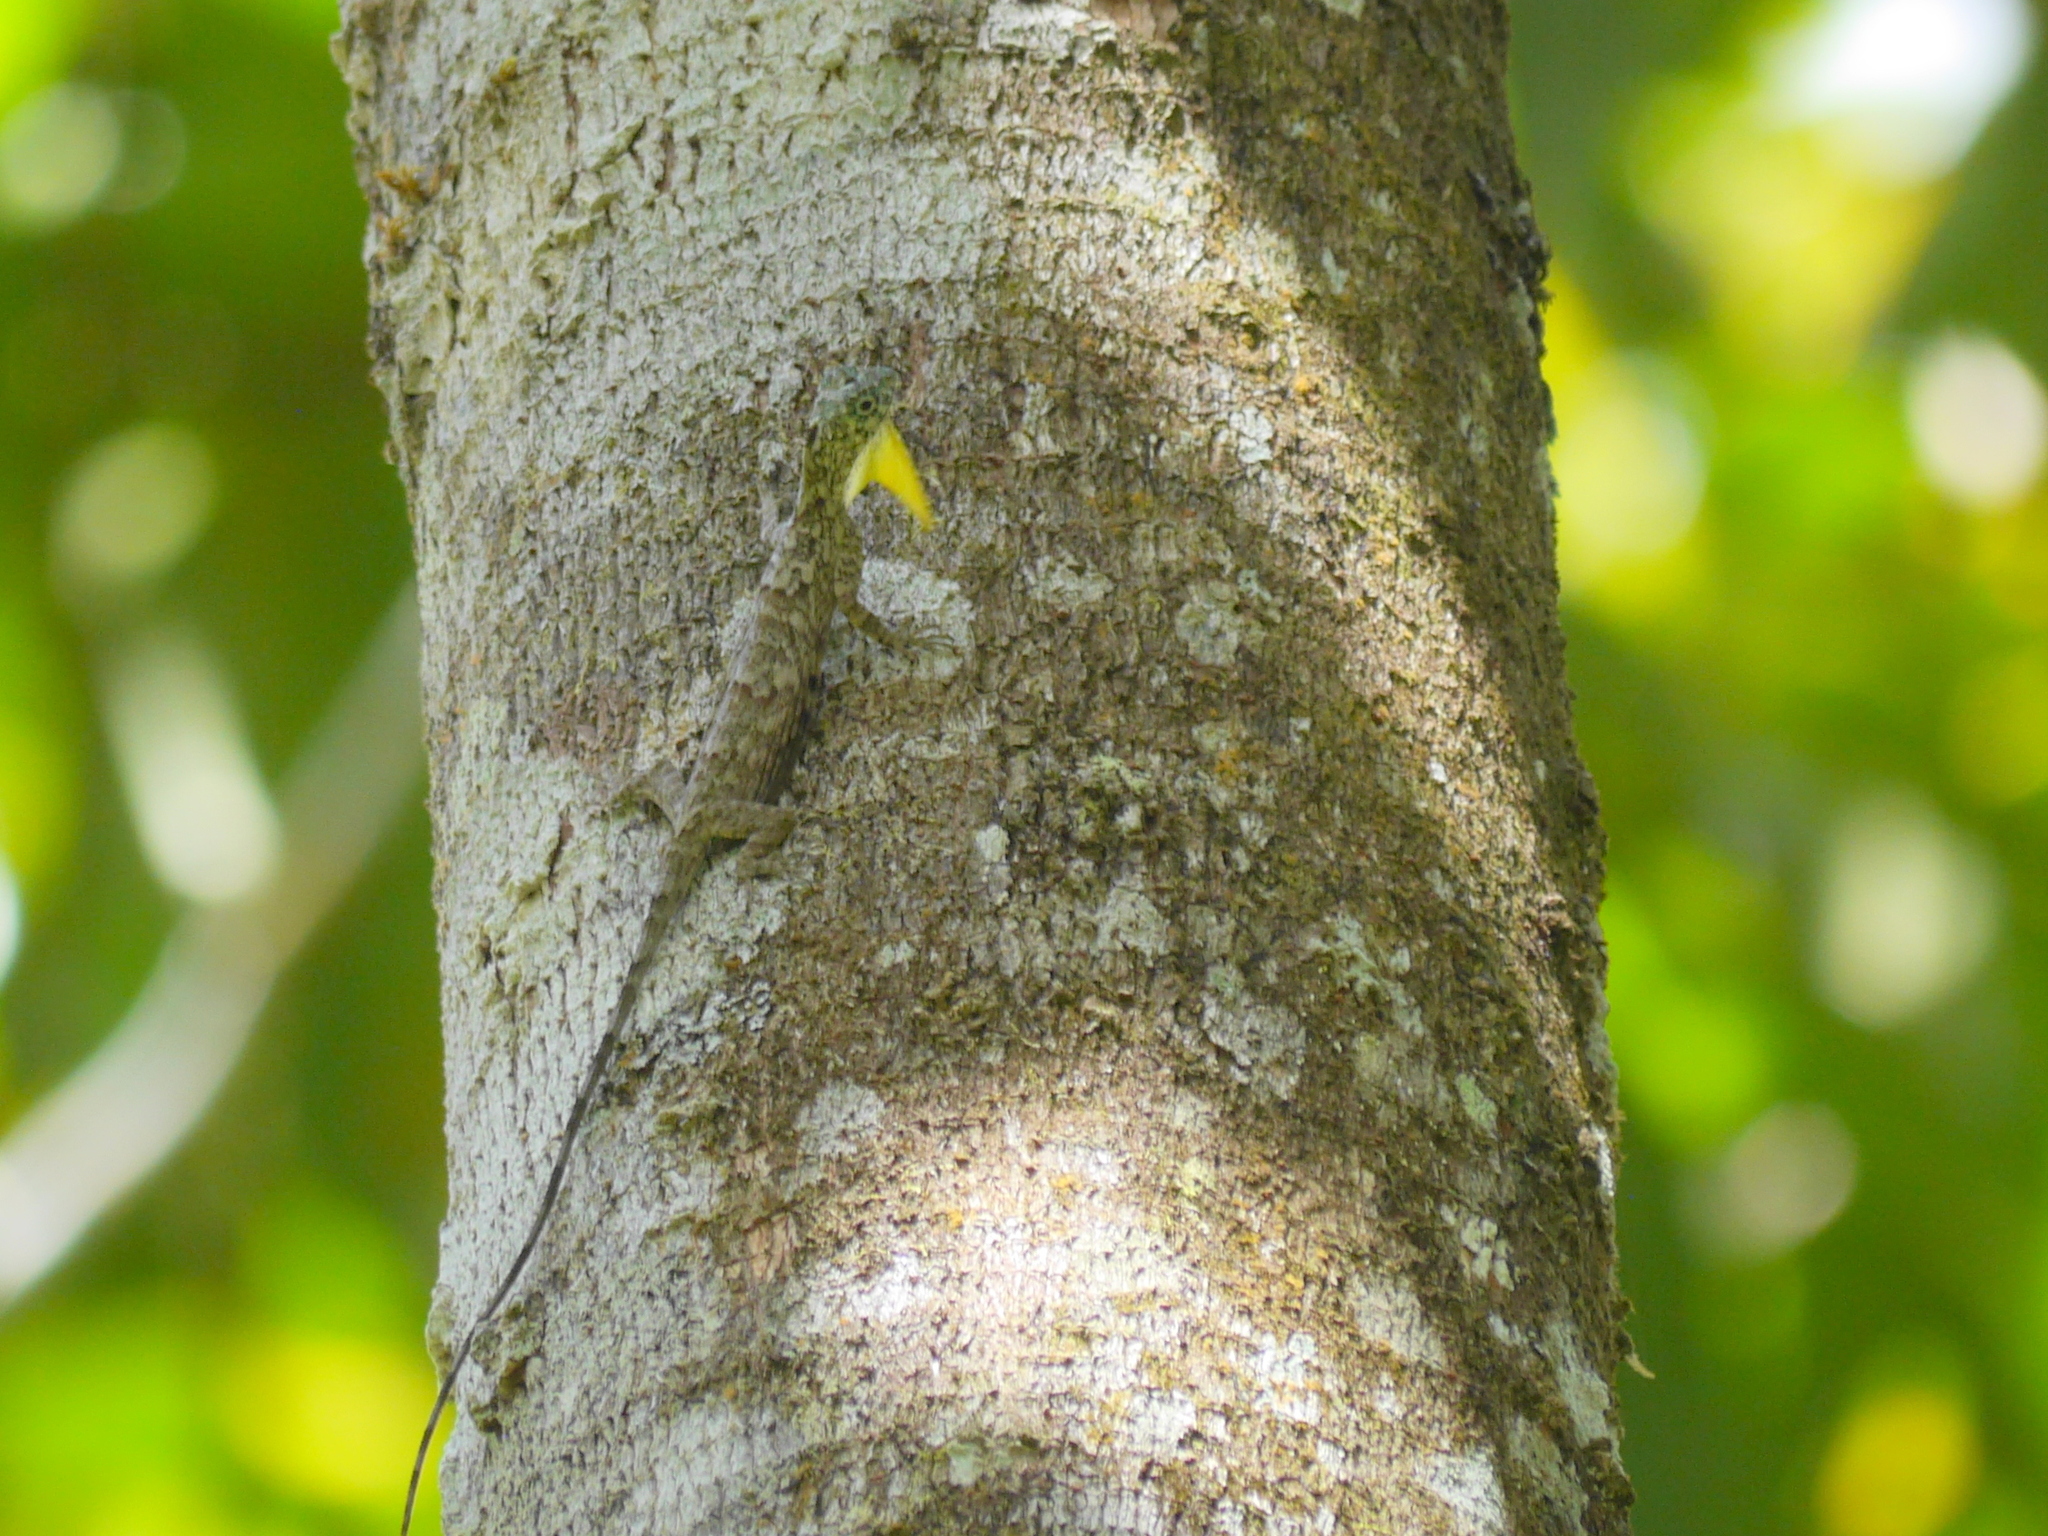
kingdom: Animalia
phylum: Chordata
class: Squamata
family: Agamidae
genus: Draco
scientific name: Draco sumatranus
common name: Common gliding lizard
